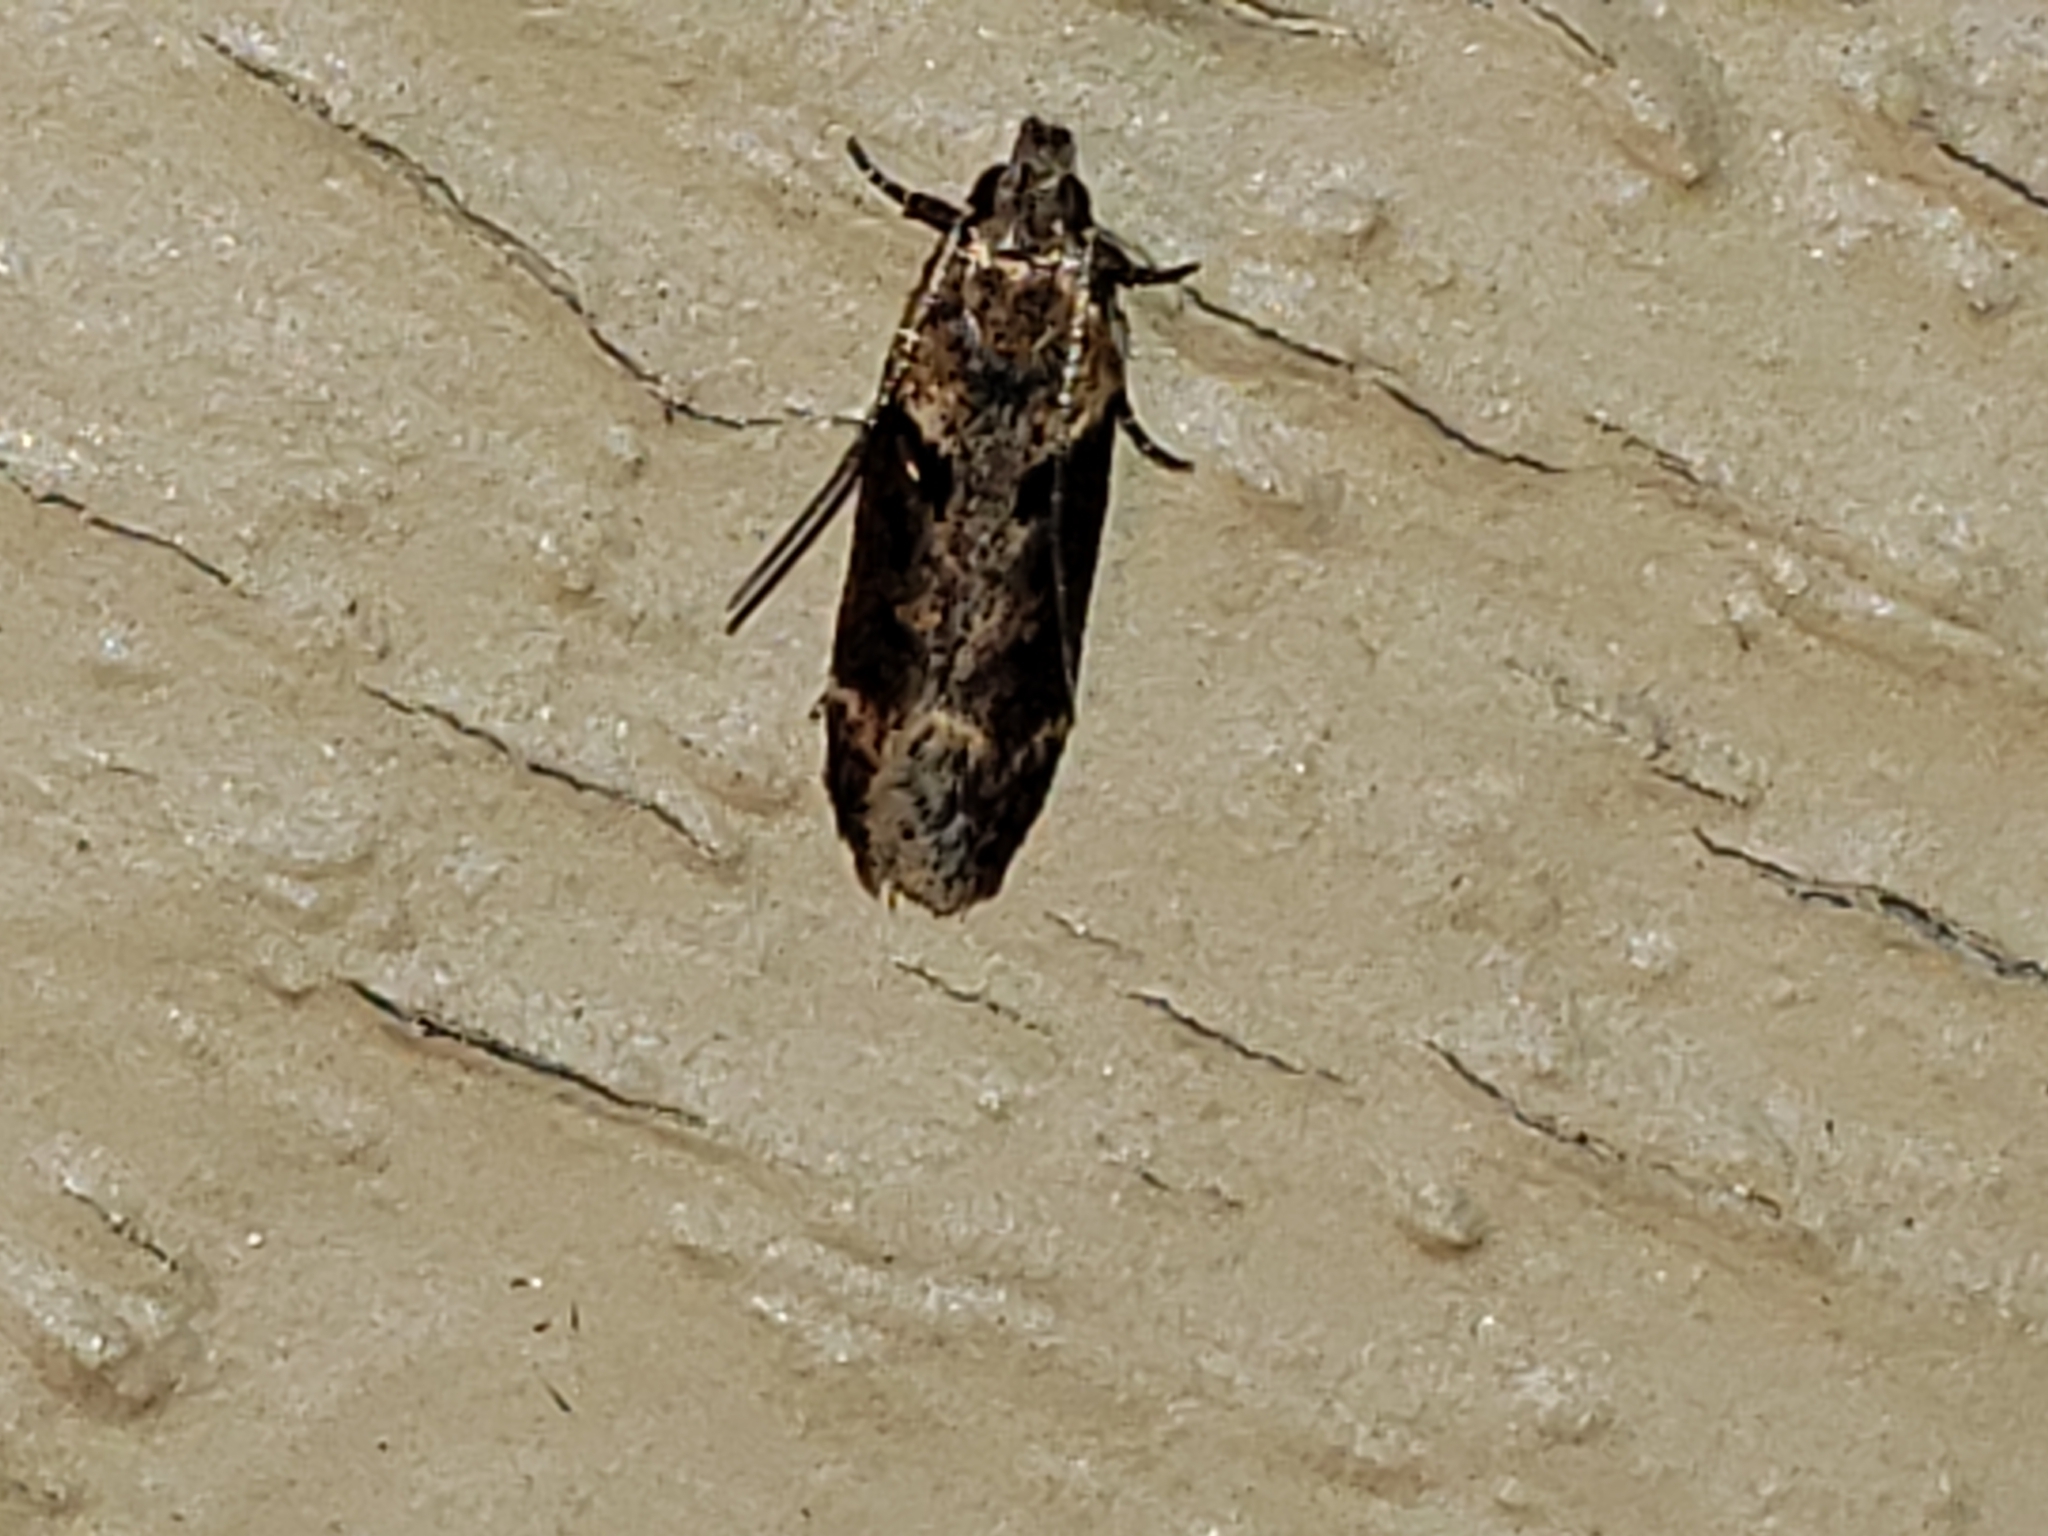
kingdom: Animalia
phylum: Arthropoda
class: Insecta
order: Lepidoptera
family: Gelechiidae
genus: Chionodes
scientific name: Chionodes mediofuscella
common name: Black-smudged chionodes moth
